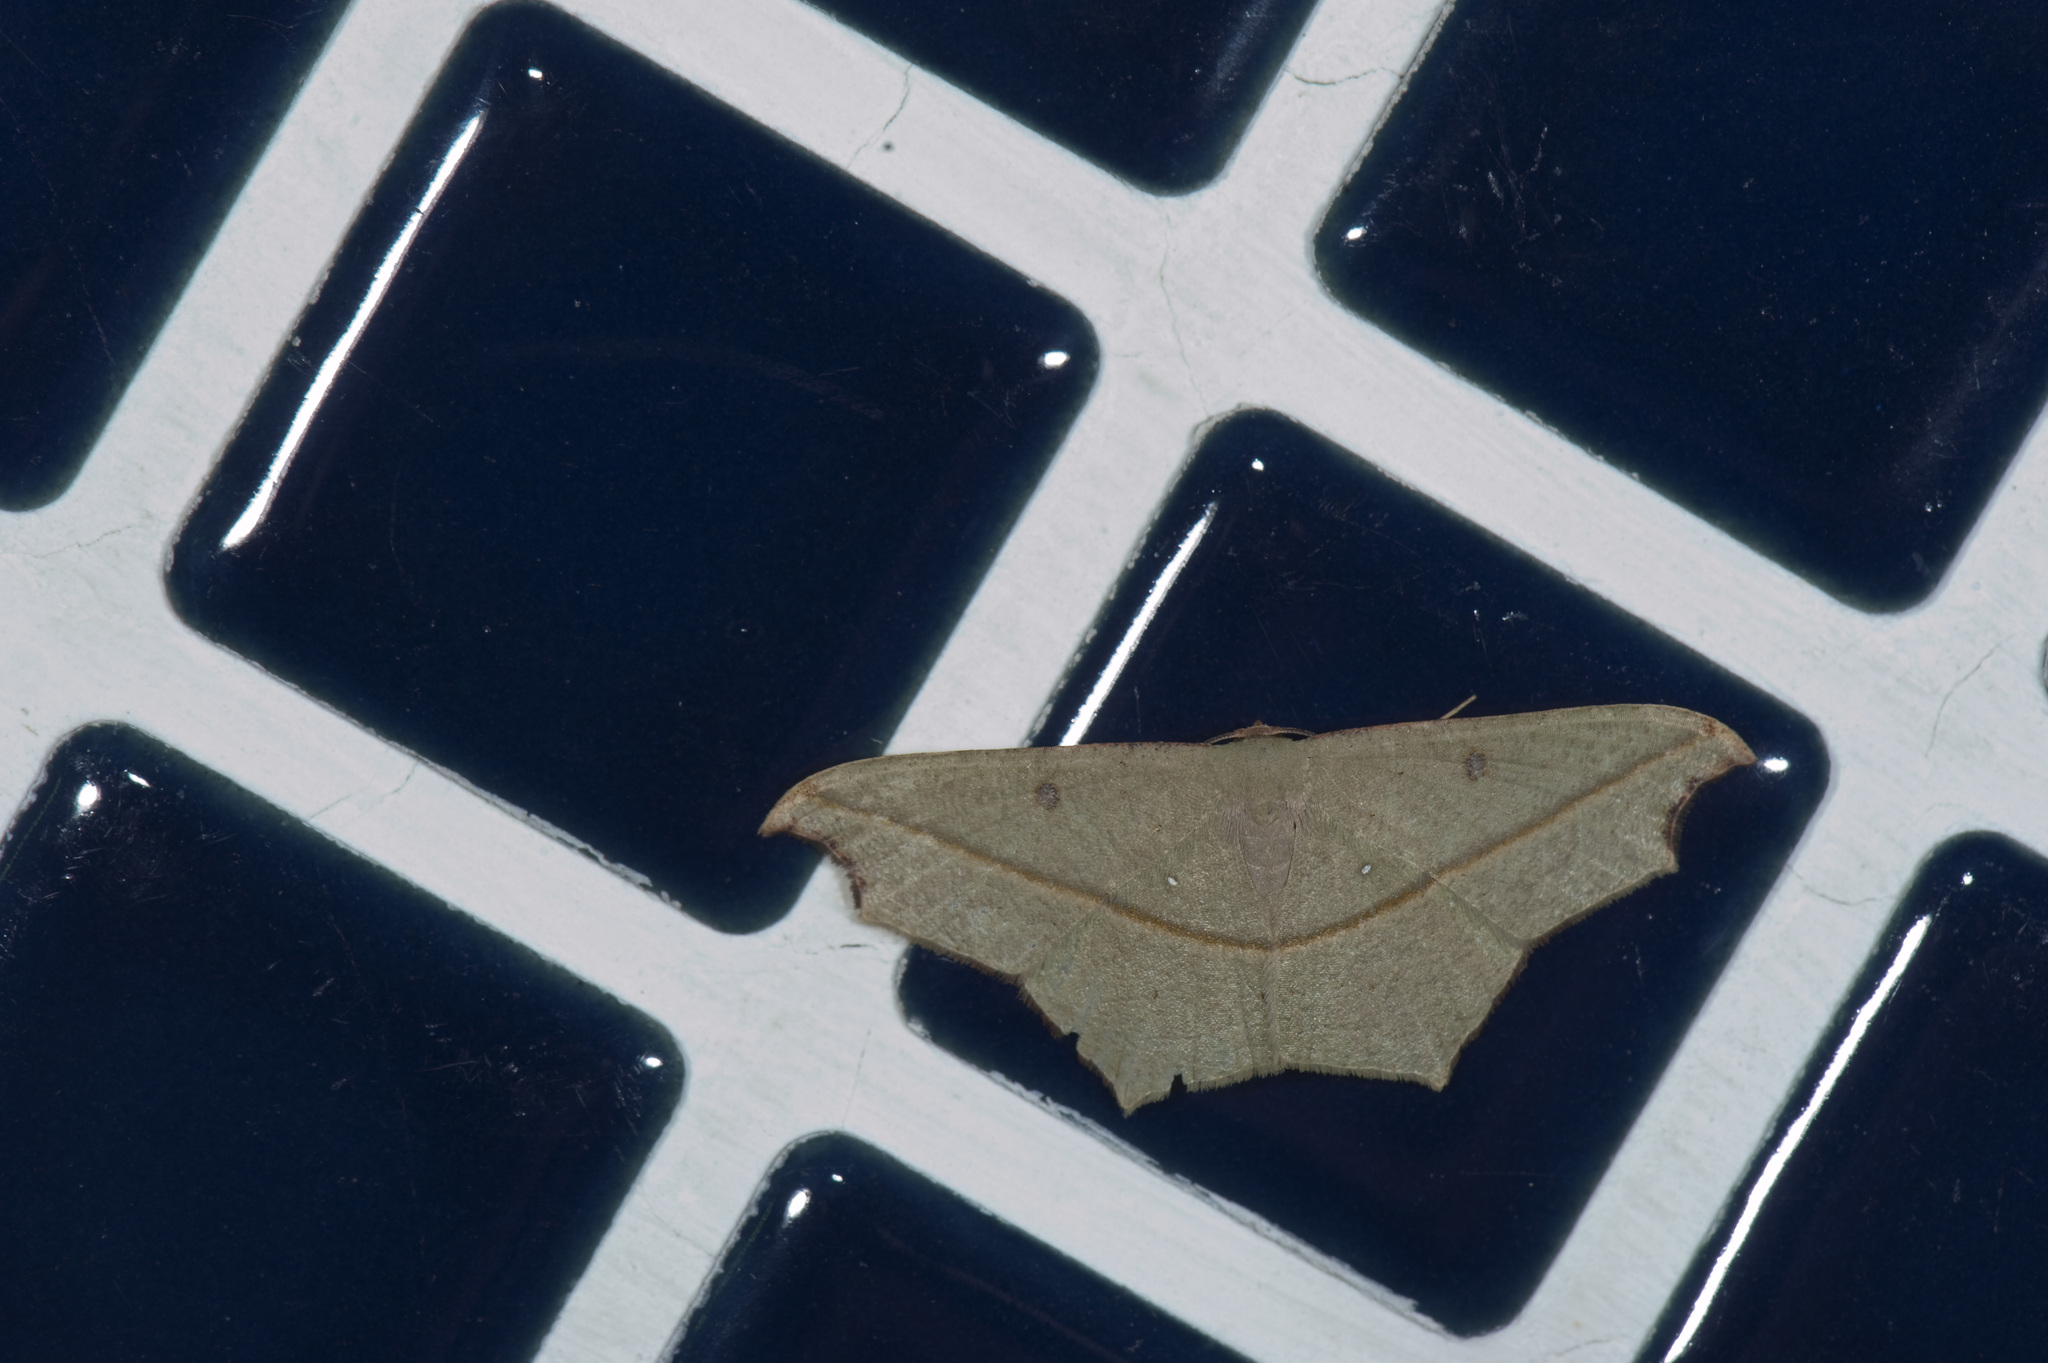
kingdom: Animalia
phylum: Arthropoda
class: Insecta
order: Lepidoptera
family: Geometridae
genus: Traminda
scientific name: Traminda aventiaria
